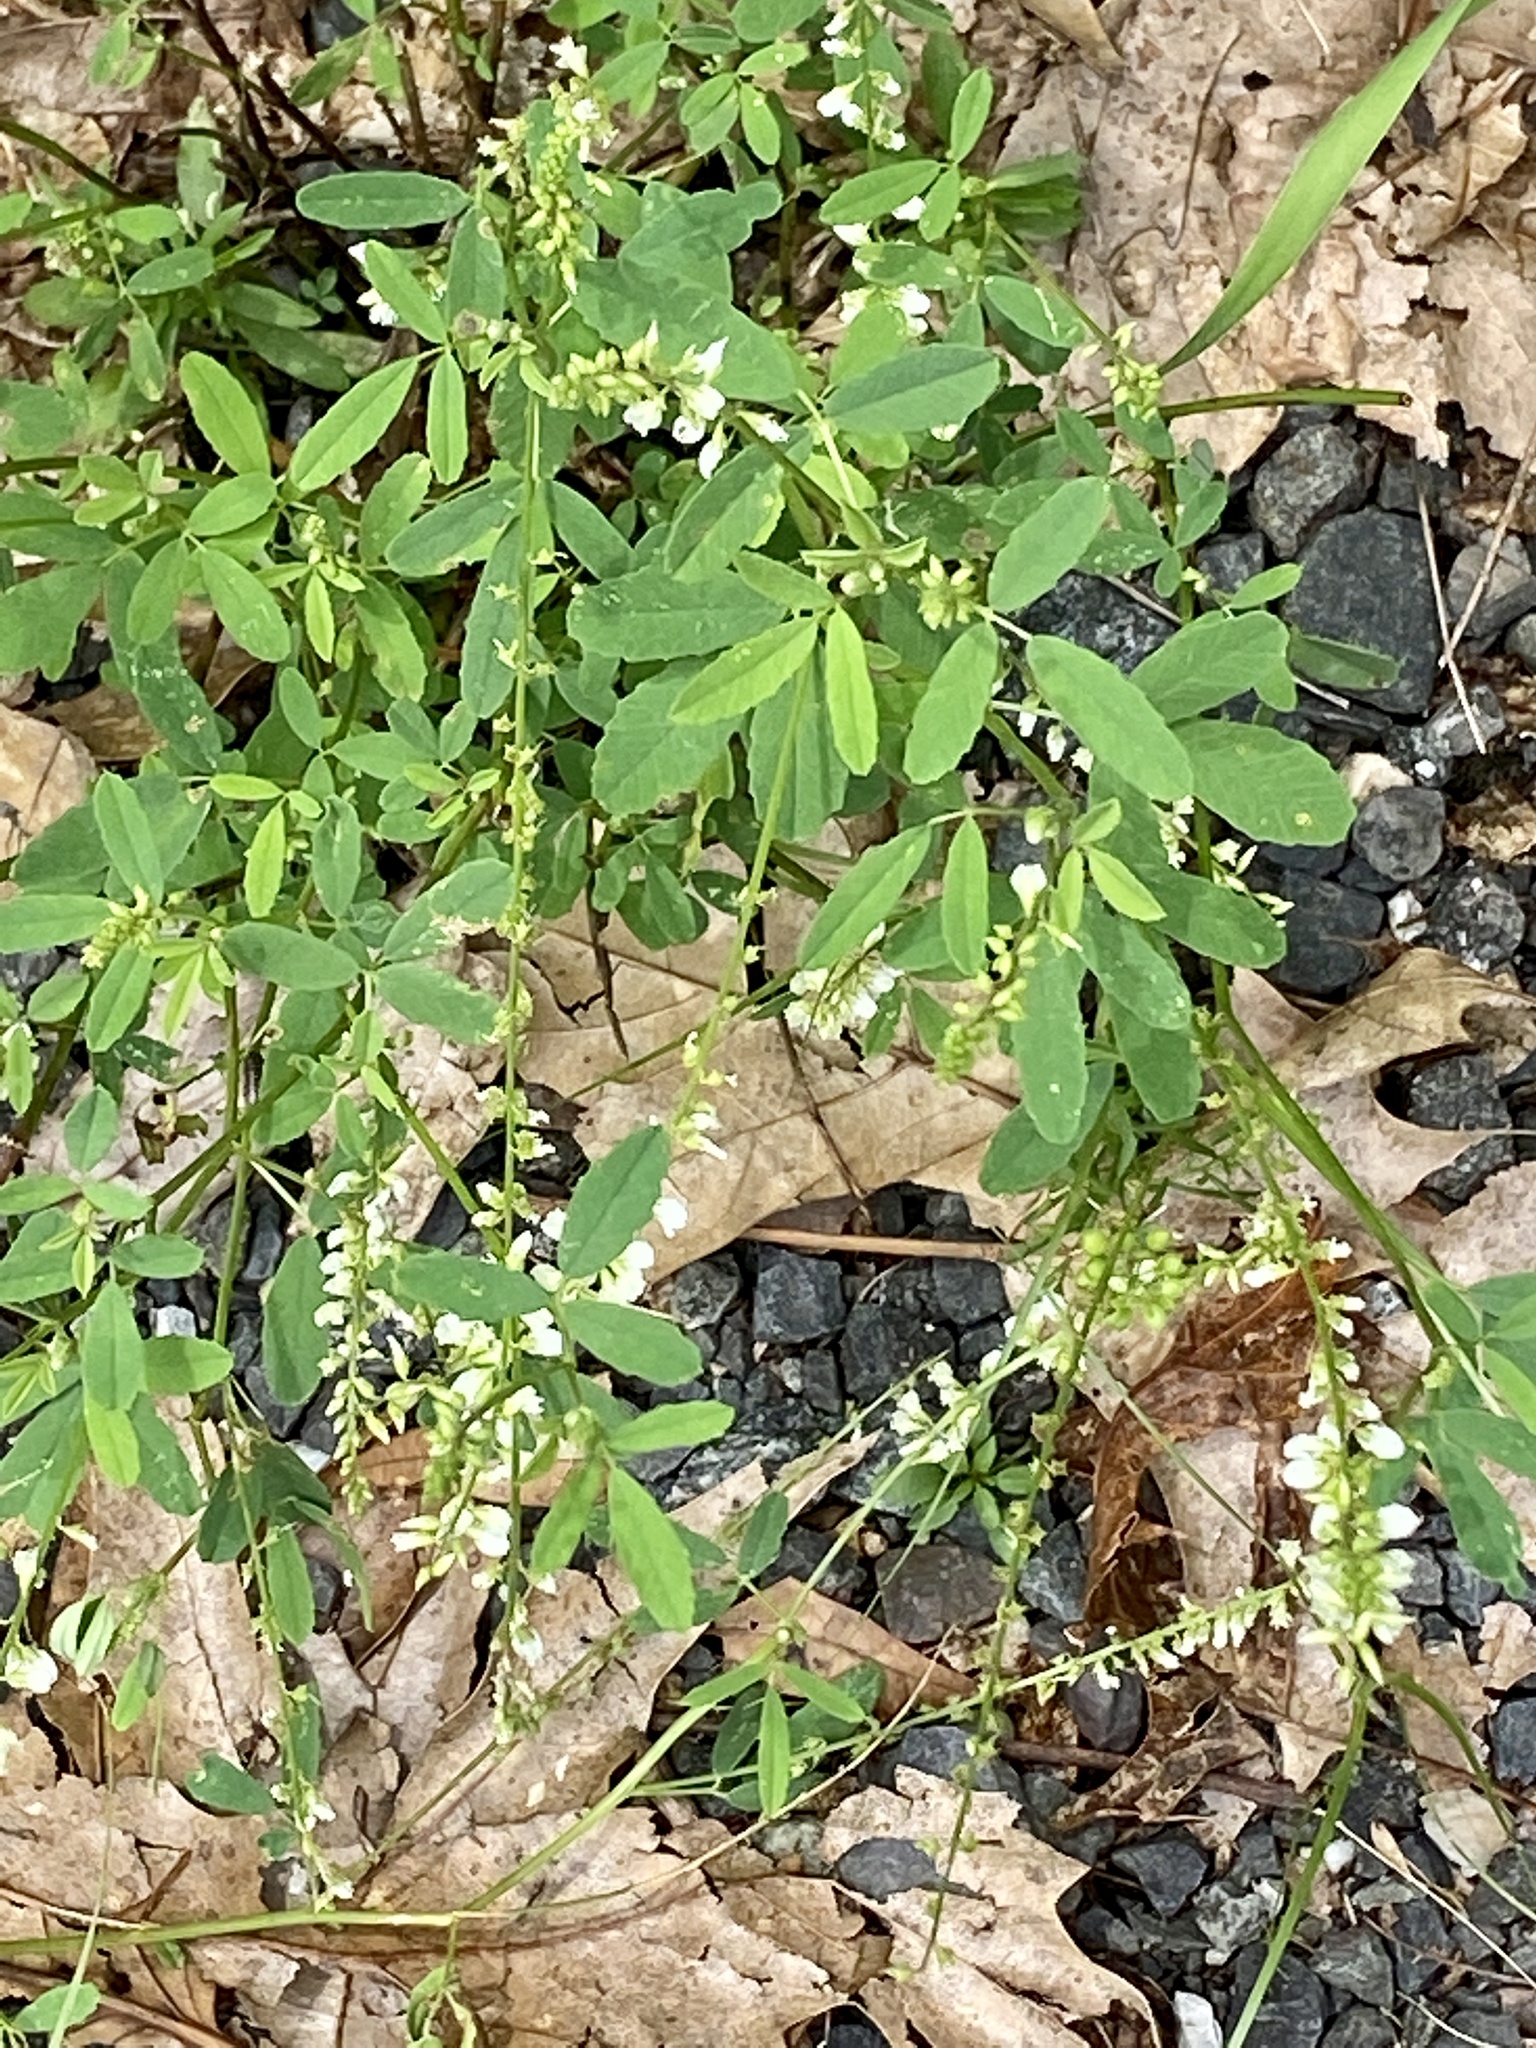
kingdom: Plantae
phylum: Tracheophyta
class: Magnoliopsida
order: Fabales
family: Fabaceae
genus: Melilotus
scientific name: Melilotus albus
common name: White melilot
